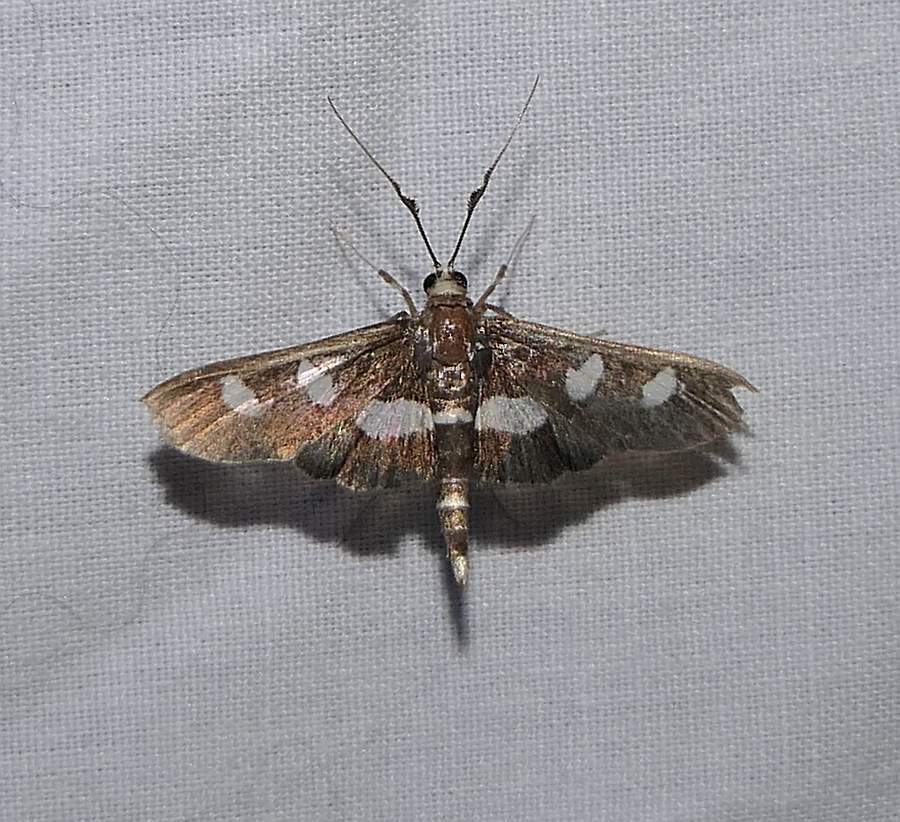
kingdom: Animalia
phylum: Arthropoda
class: Insecta
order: Lepidoptera
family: Crambidae
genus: Desmia
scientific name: Desmia
